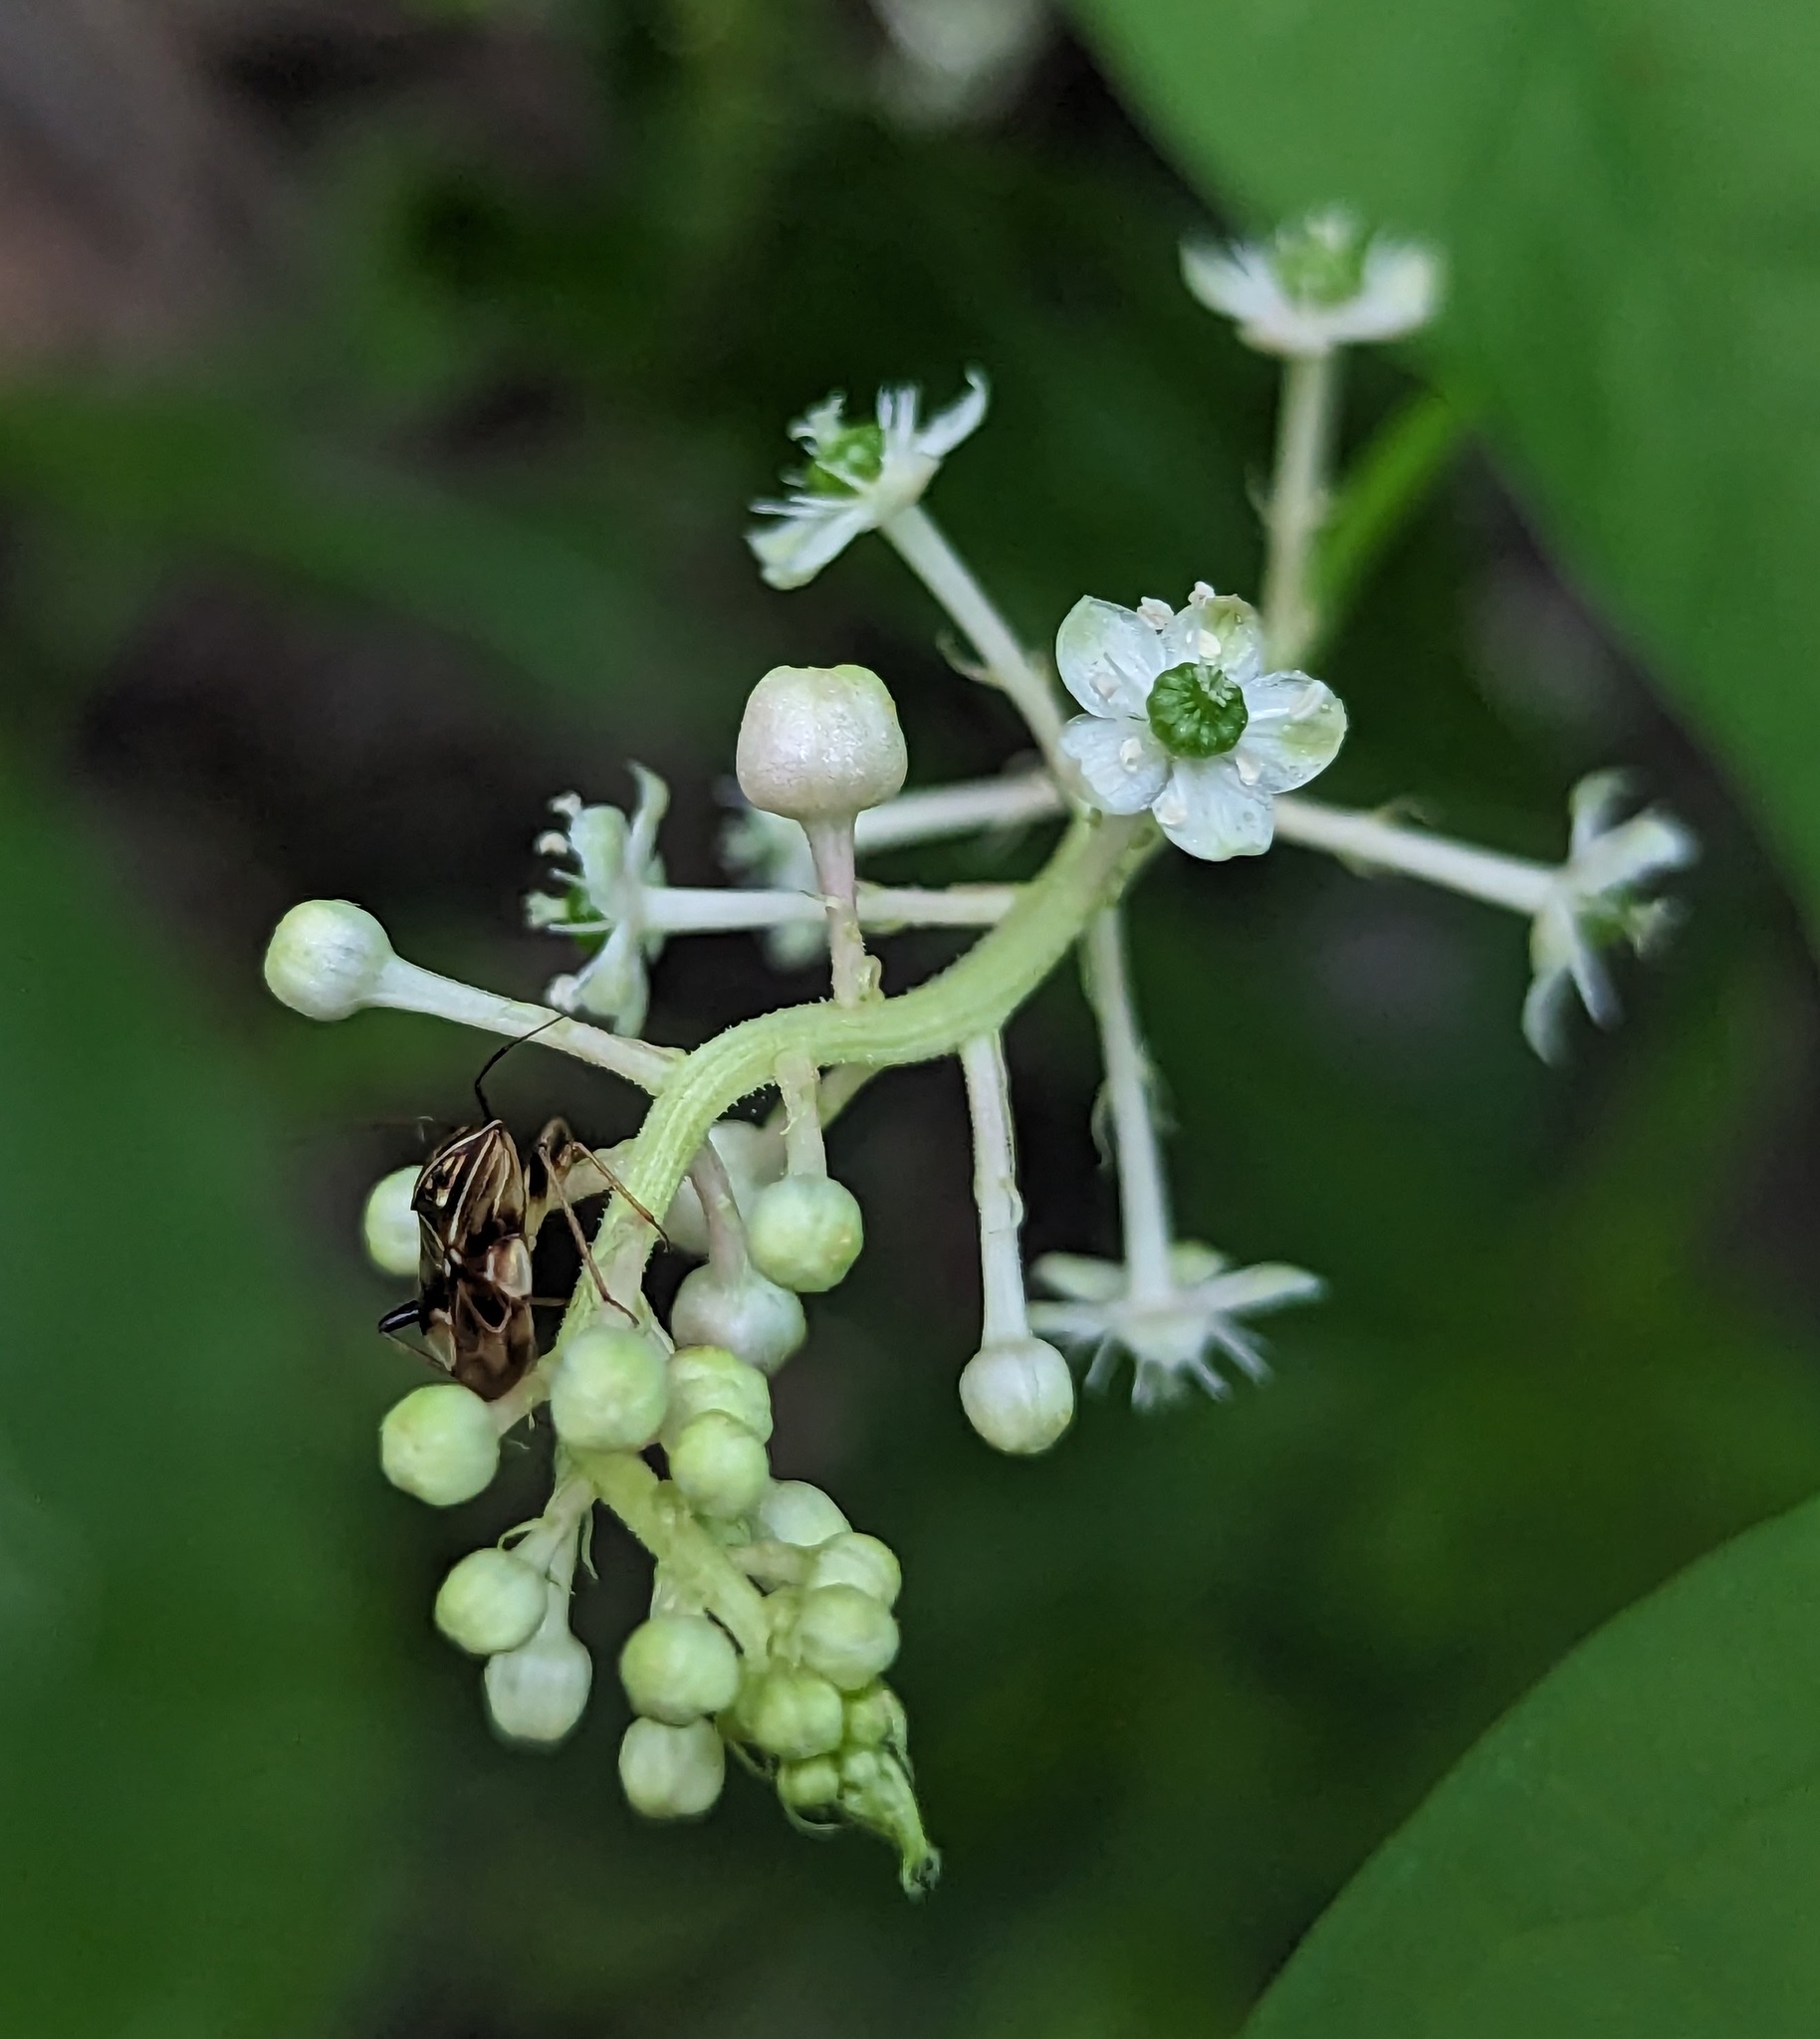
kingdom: Plantae
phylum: Tracheophyta
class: Magnoliopsida
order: Caryophyllales
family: Phytolaccaceae
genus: Phytolacca
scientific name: Phytolacca americana
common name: American pokeweed
